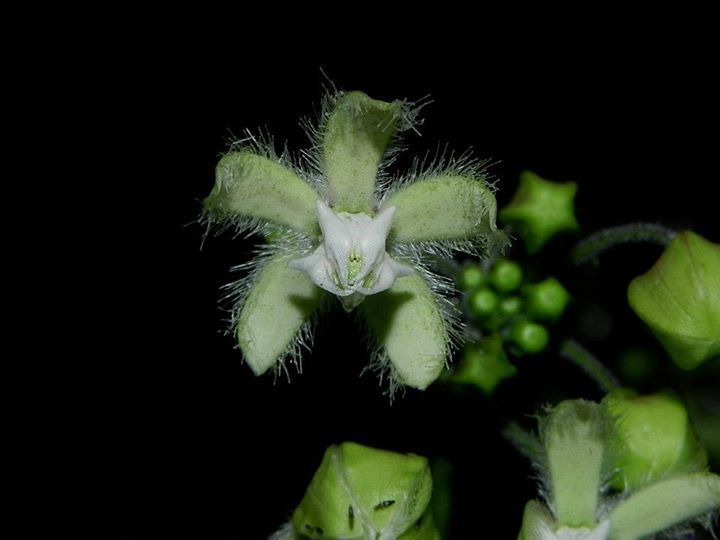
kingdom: Plantae
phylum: Tracheophyta
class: Magnoliopsida
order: Gentianales
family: Apocynaceae
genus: Pergularia
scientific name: Pergularia daemia
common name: Trellis-vine
